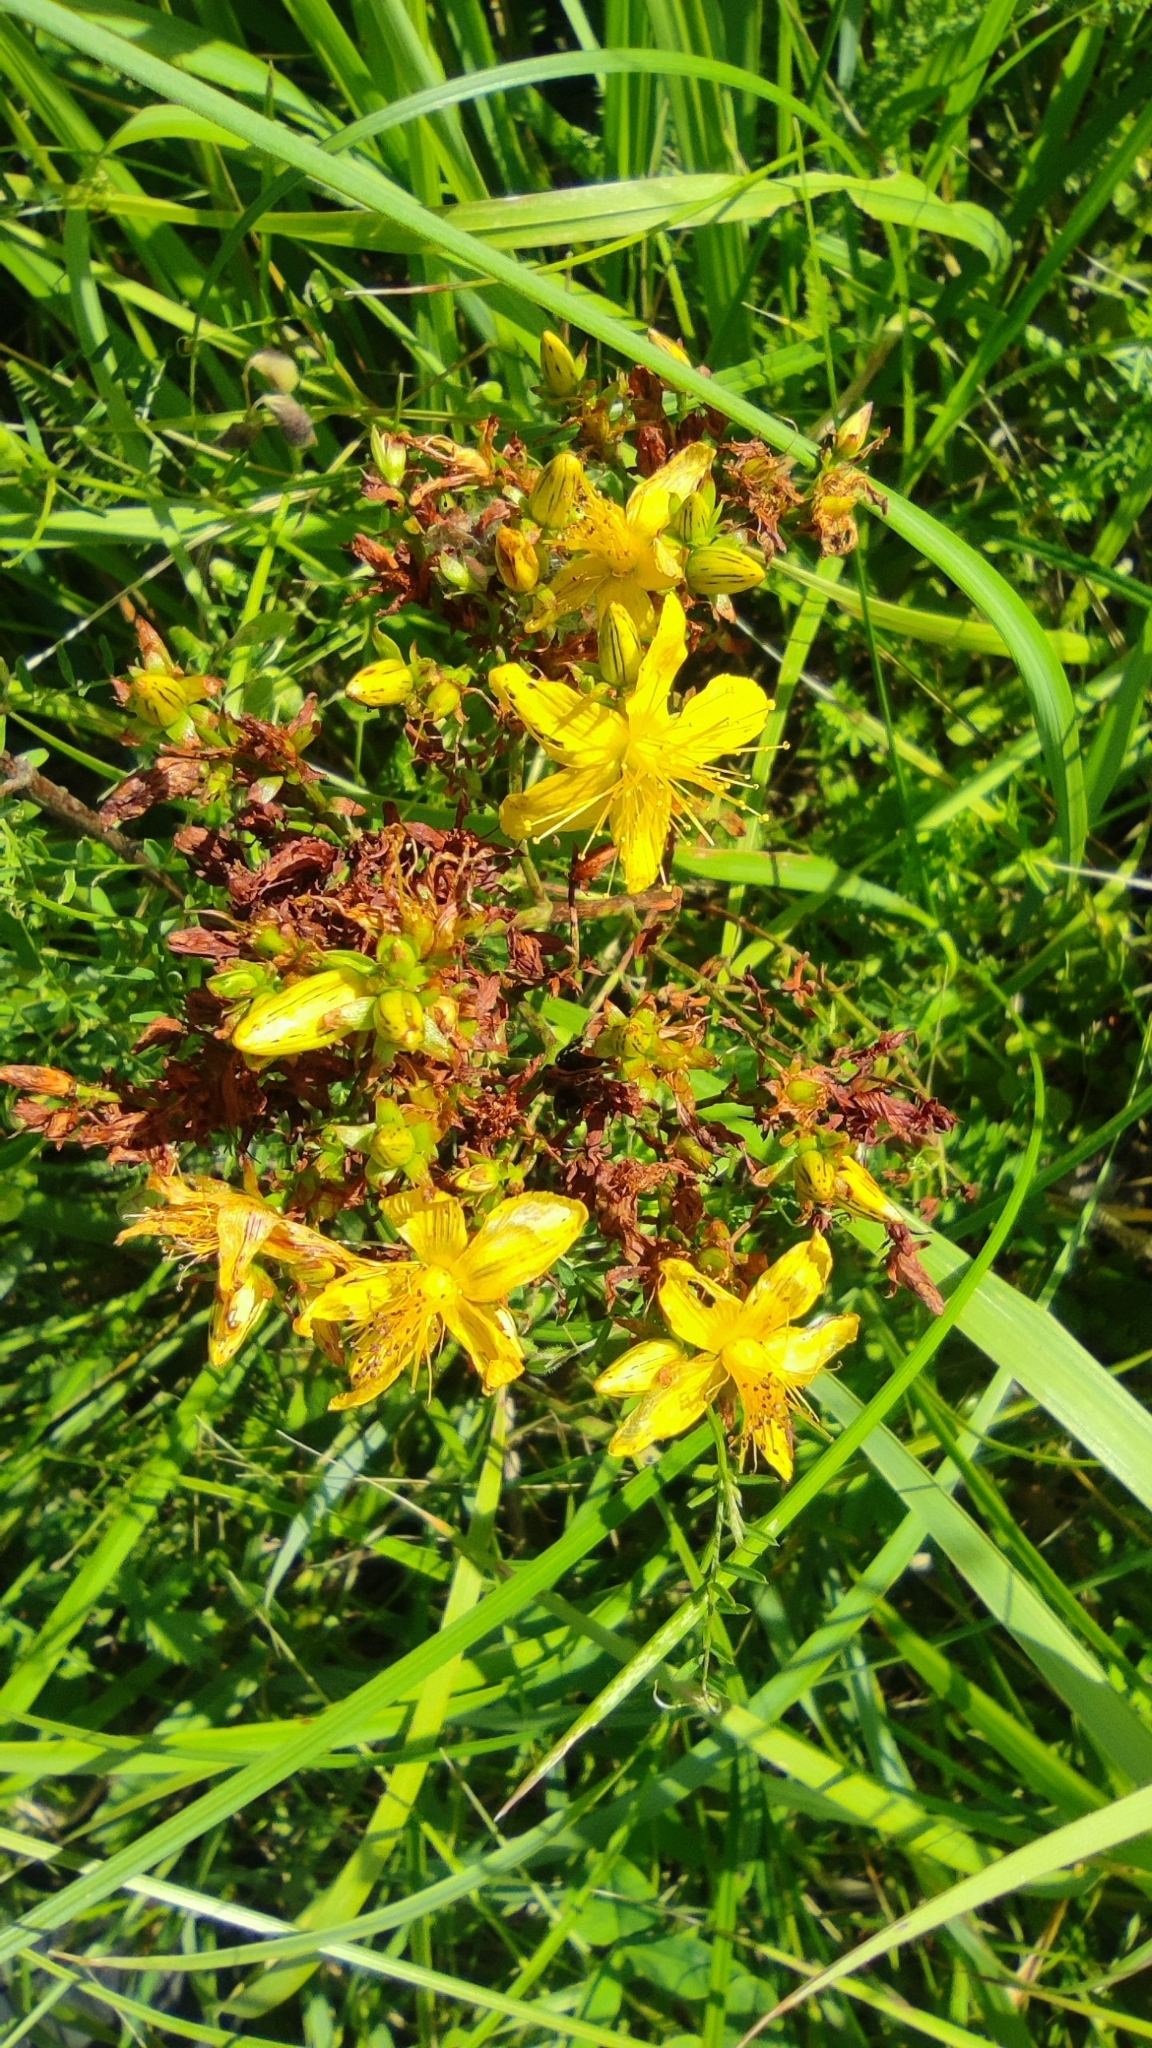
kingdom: Plantae
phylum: Tracheophyta
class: Magnoliopsida
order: Malpighiales
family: Hypericaceae
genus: Hypericum
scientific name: Hypericum perforatum
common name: Common st. johnswort
